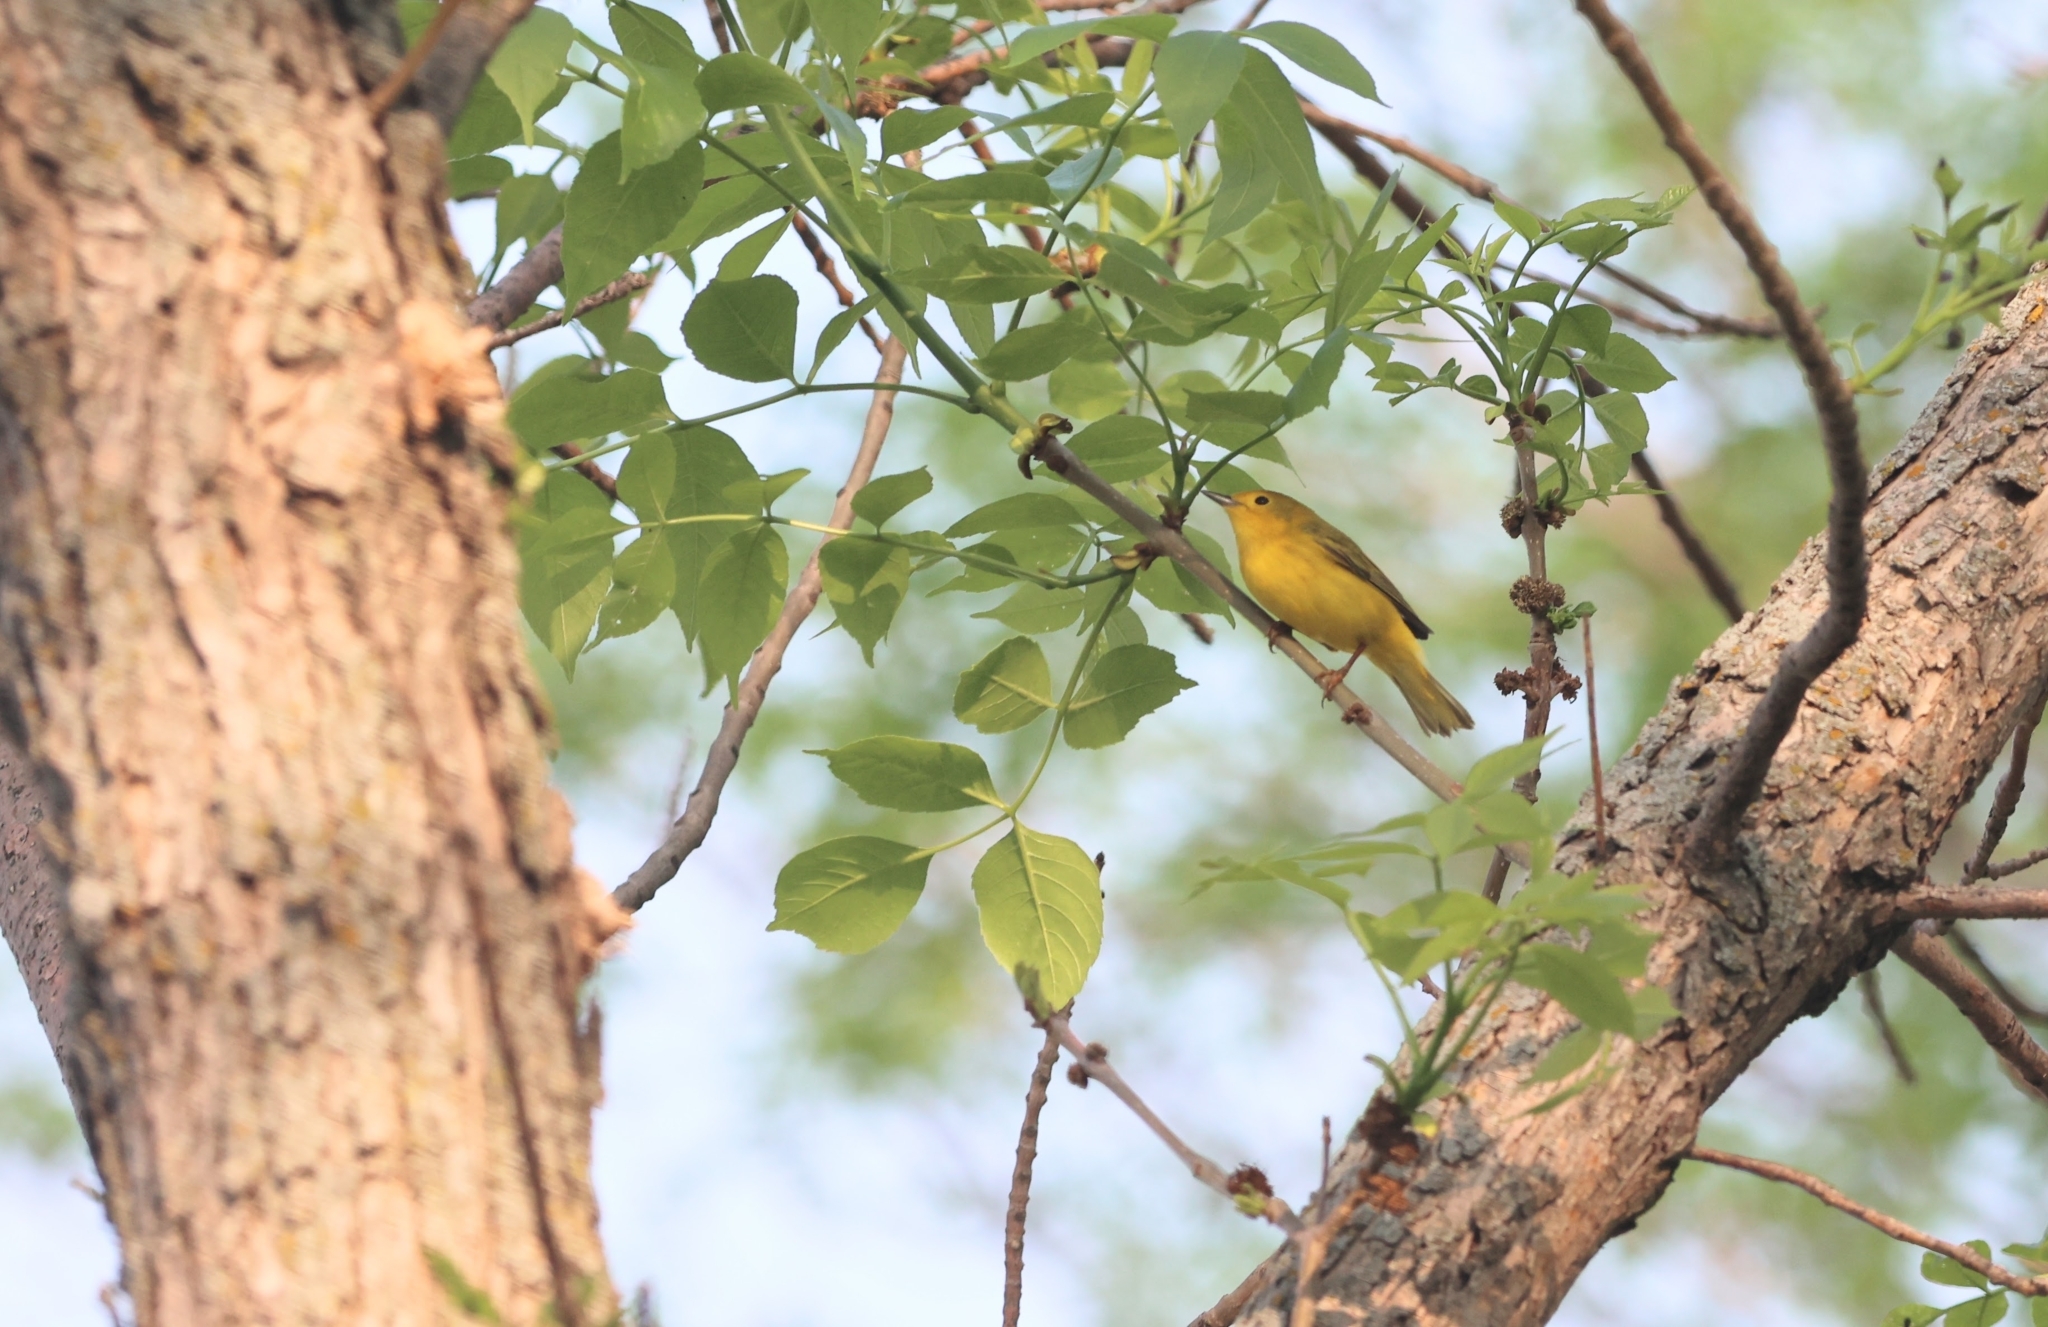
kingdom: Animalia
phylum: Chordata
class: Aves
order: Passeriformes
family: Parulidae
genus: Setophaga
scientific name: Setophaga petechia
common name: Yellow warbler
